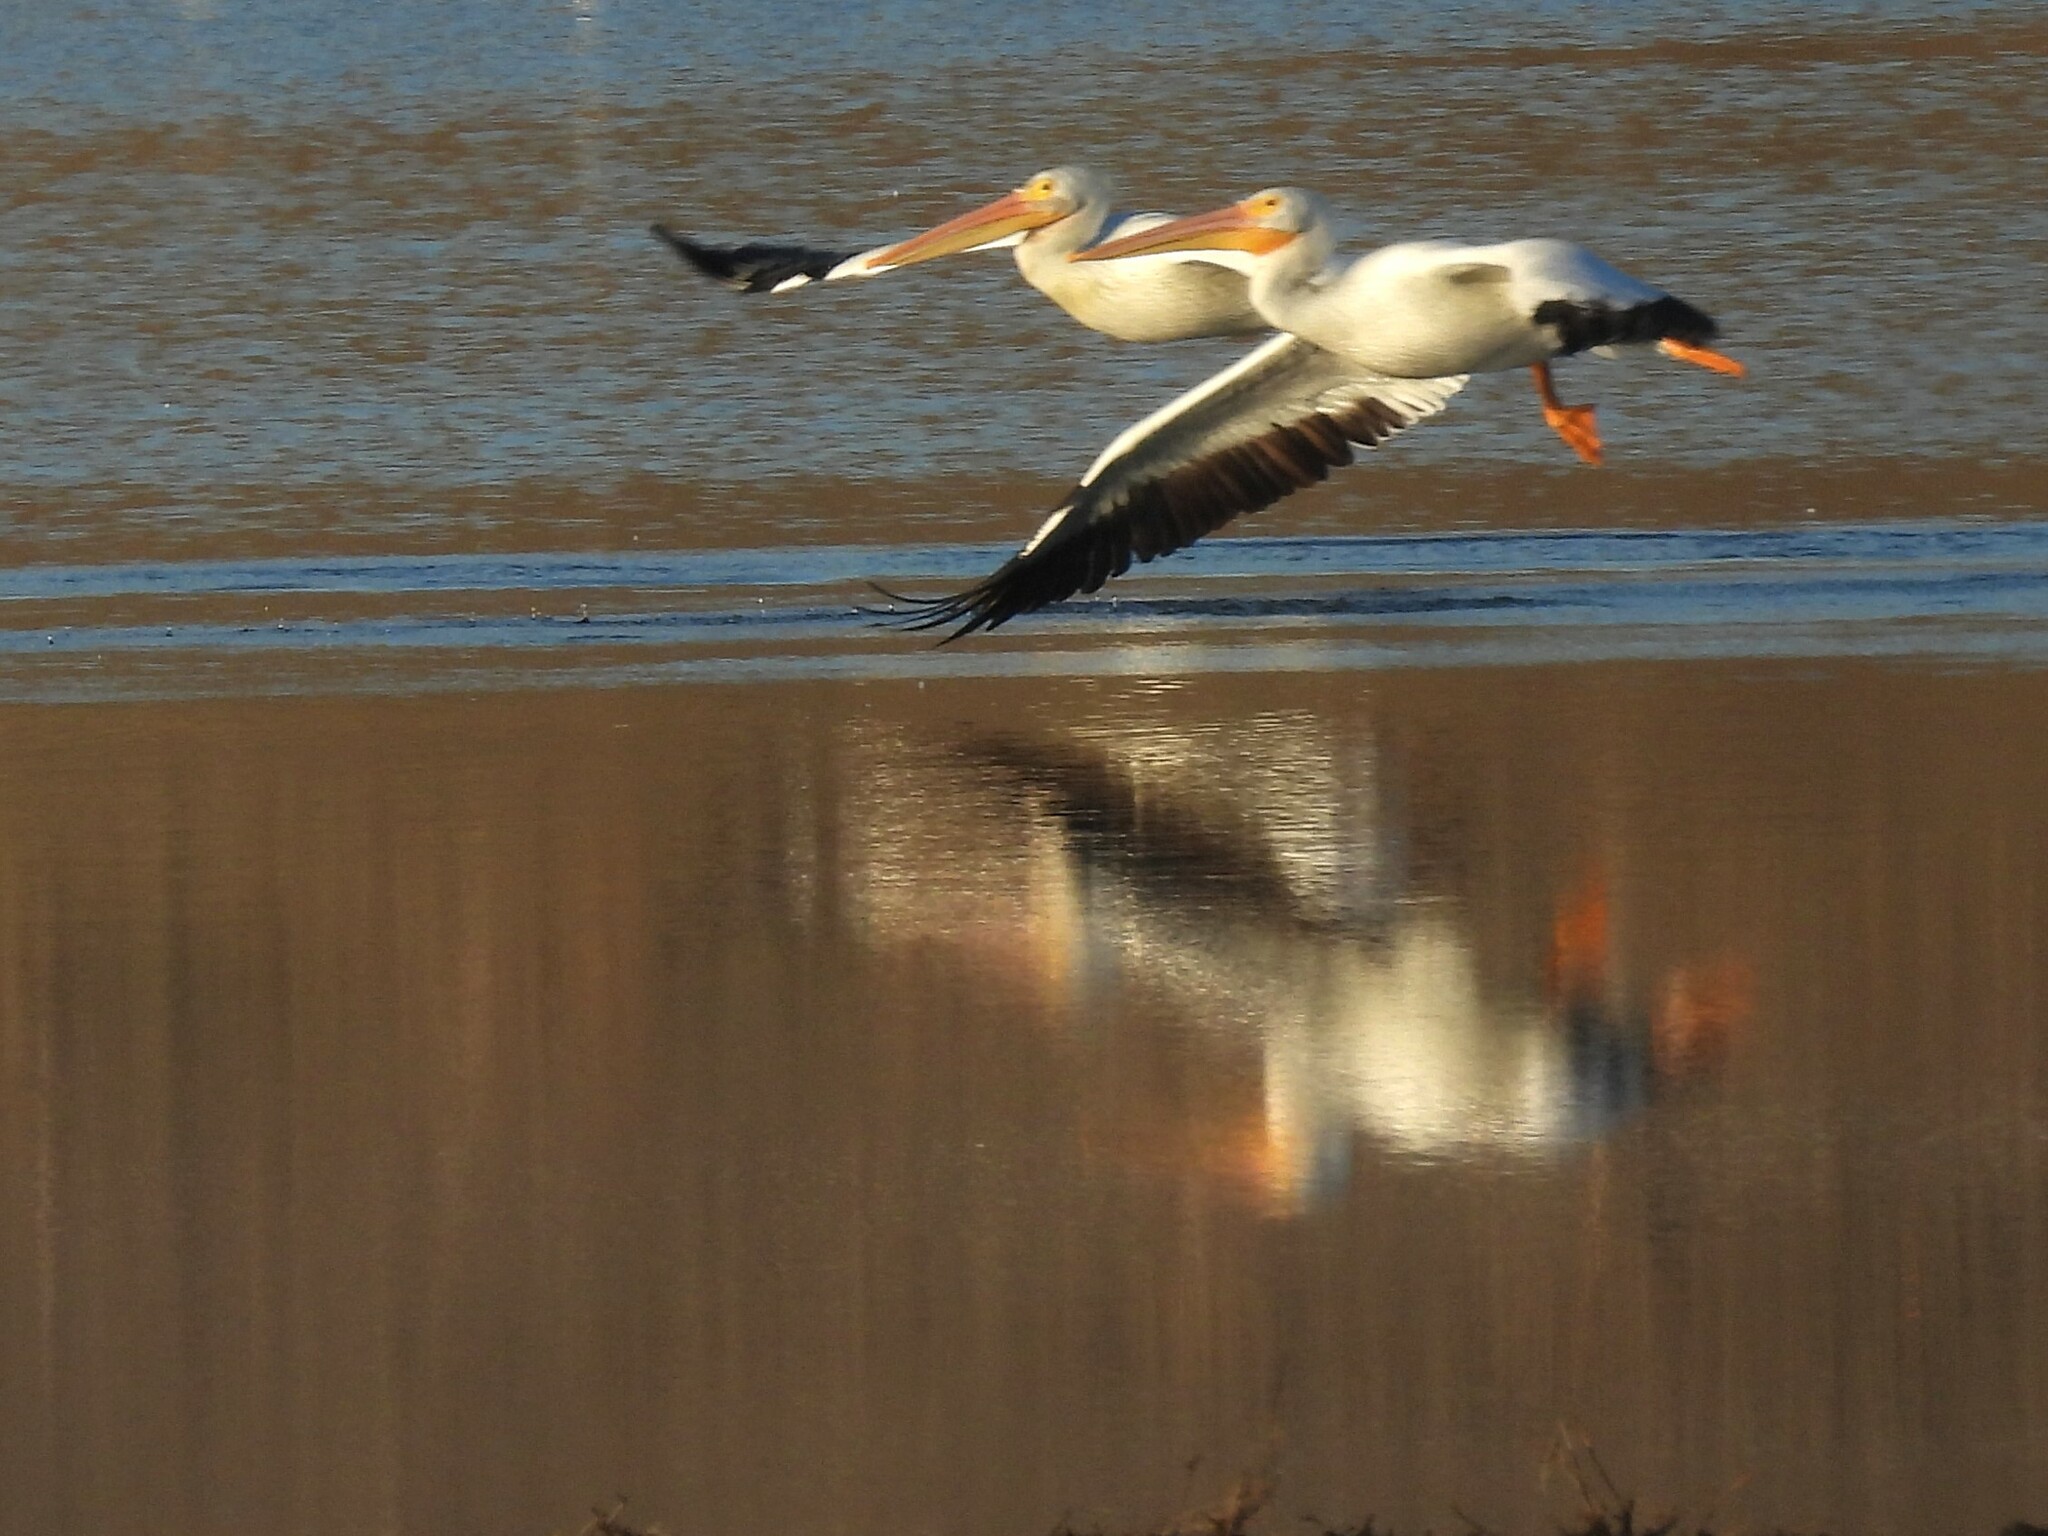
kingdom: Animalia
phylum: Chordata
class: Aves
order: Pelecaniformes
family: Pelecanidae
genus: Pelecanus
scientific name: Pelecanus erythrorhynchos
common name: American white pelican
